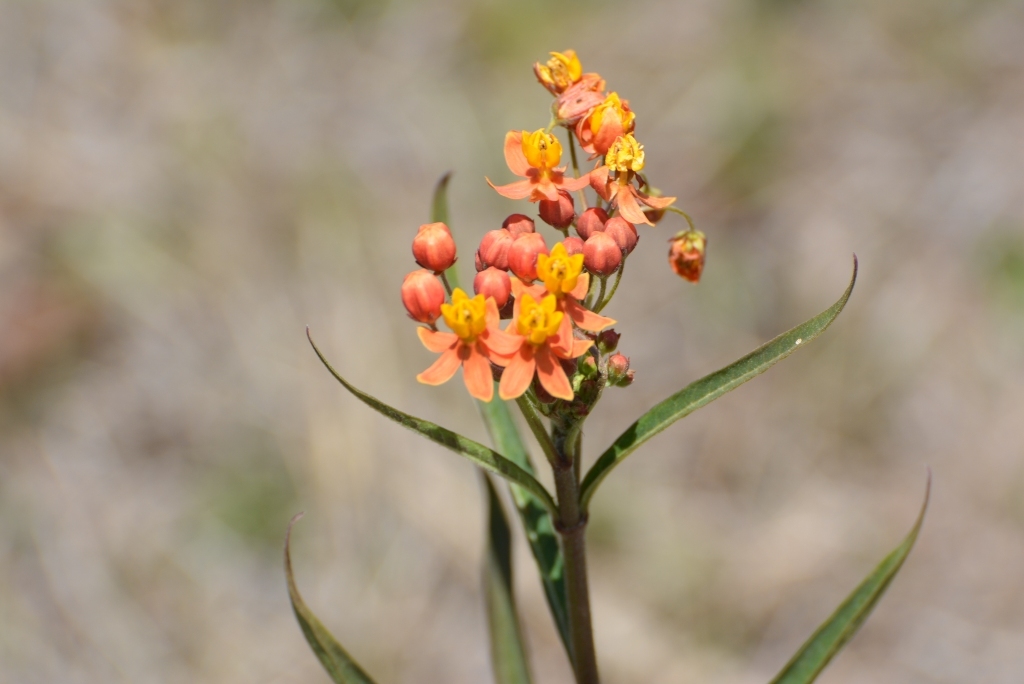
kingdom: Plantae
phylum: Tracheophyta
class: Magnoliopsida
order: Gentianales
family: Apocynaceae
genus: Asclepias
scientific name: Asclepias curassavica
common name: Bloodflower
